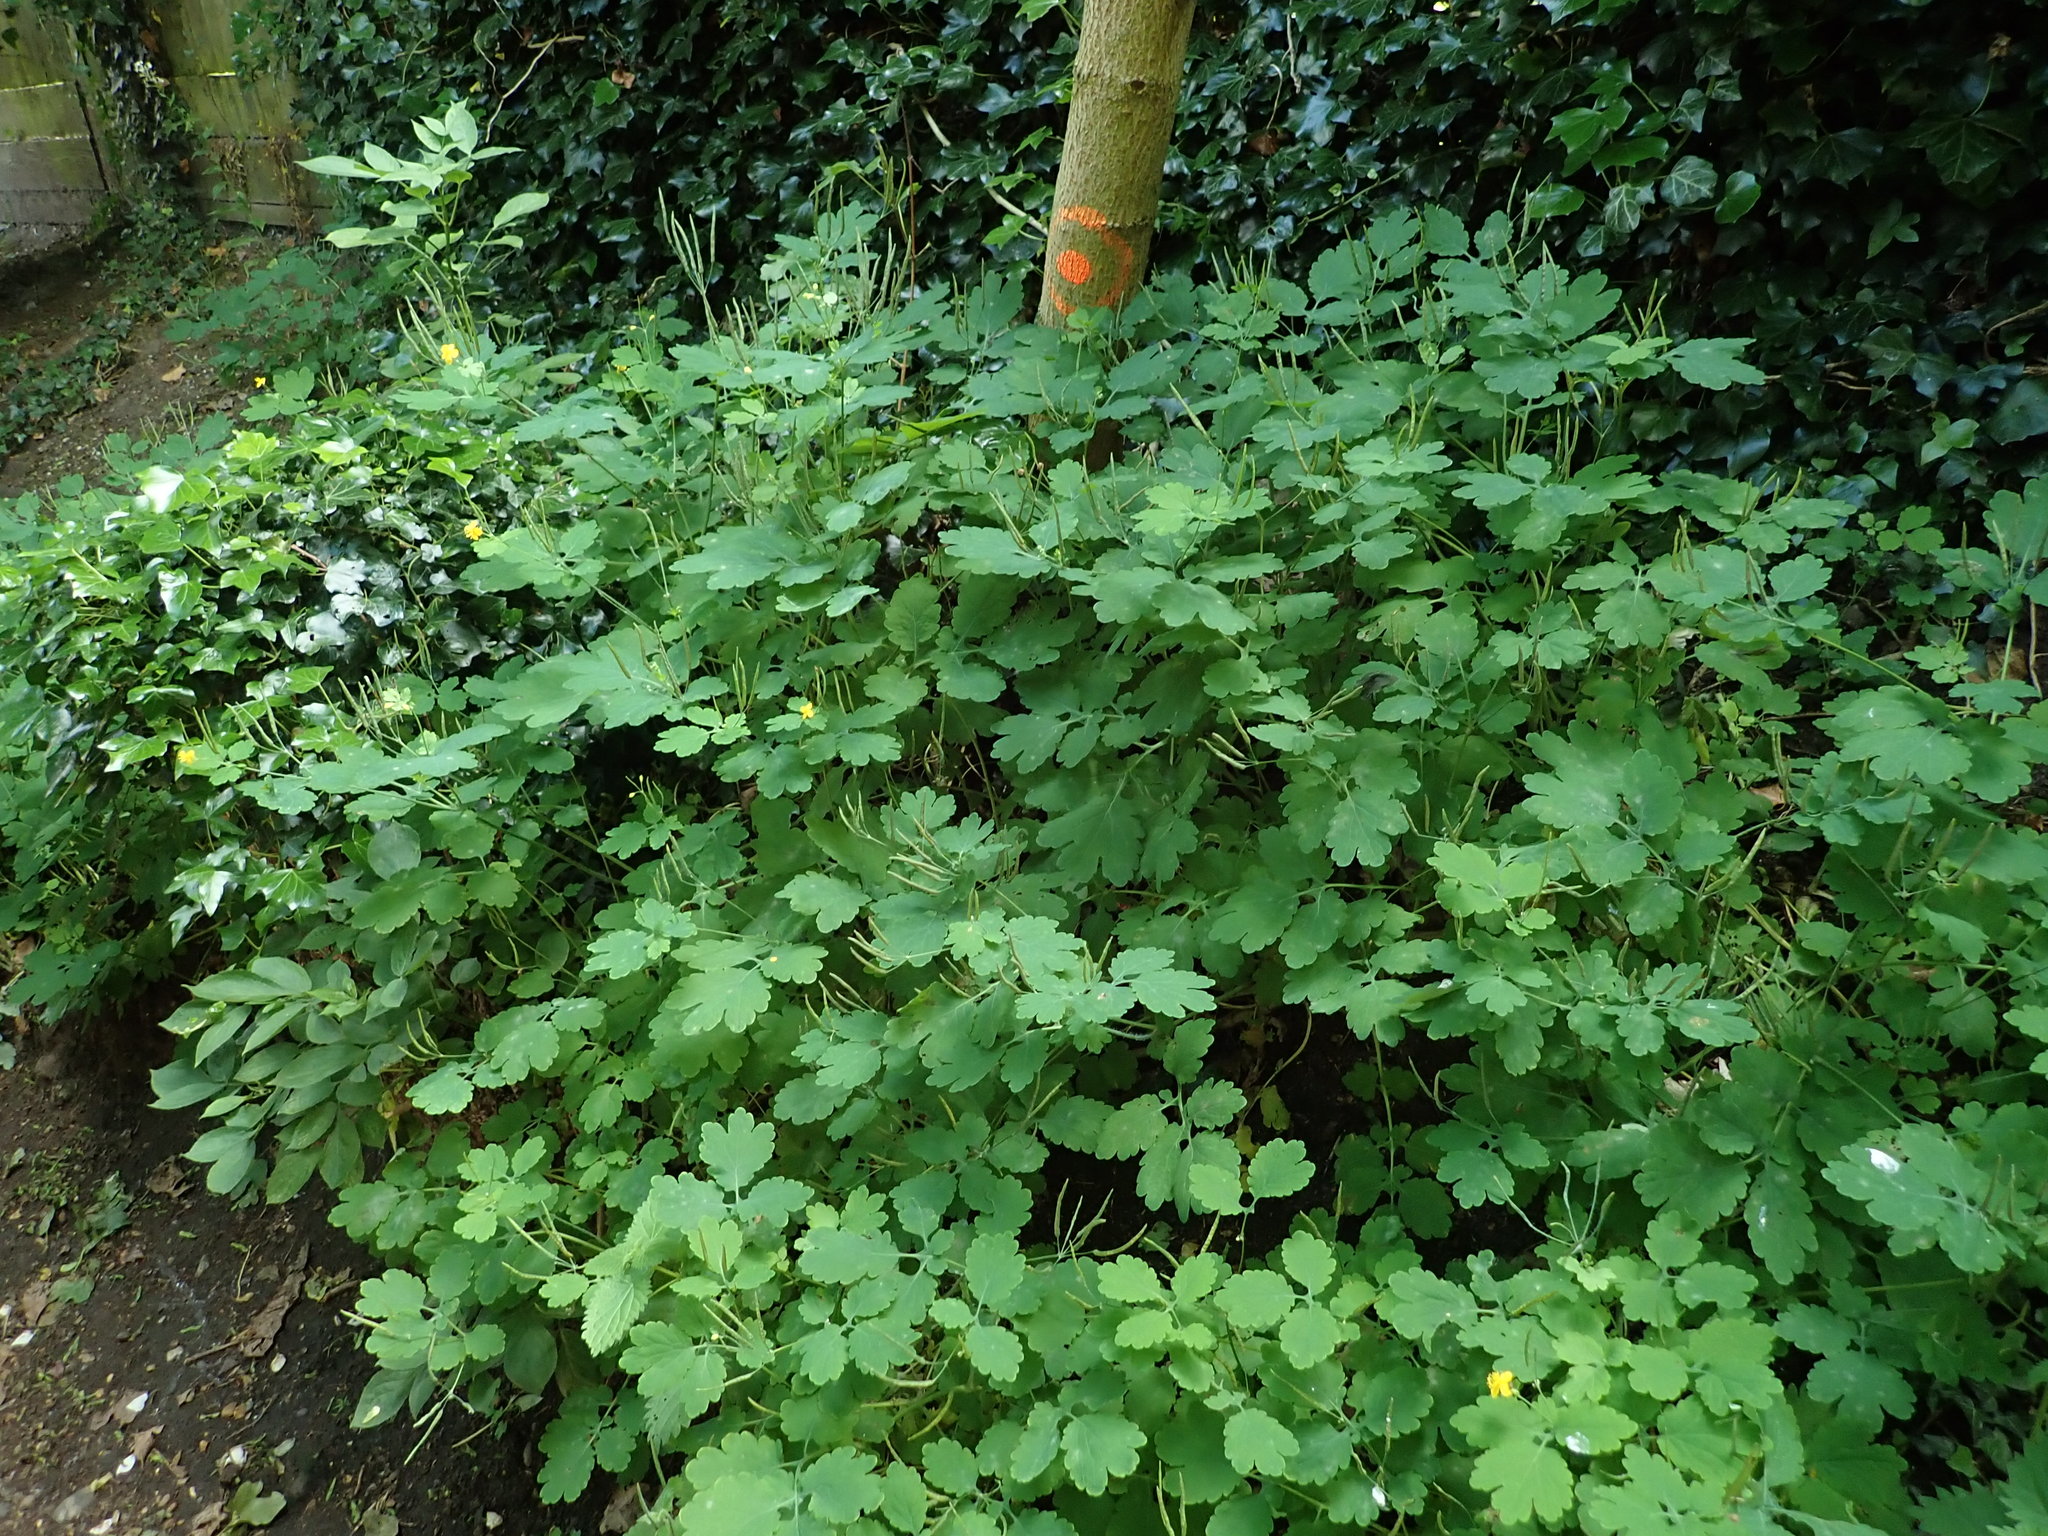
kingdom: Plantae
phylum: Tracheophyta
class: Magnoliopsida
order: Ranunculales
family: Papaveraceae
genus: Chelidonium
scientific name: Chelidonium majus
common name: Greater celandine
